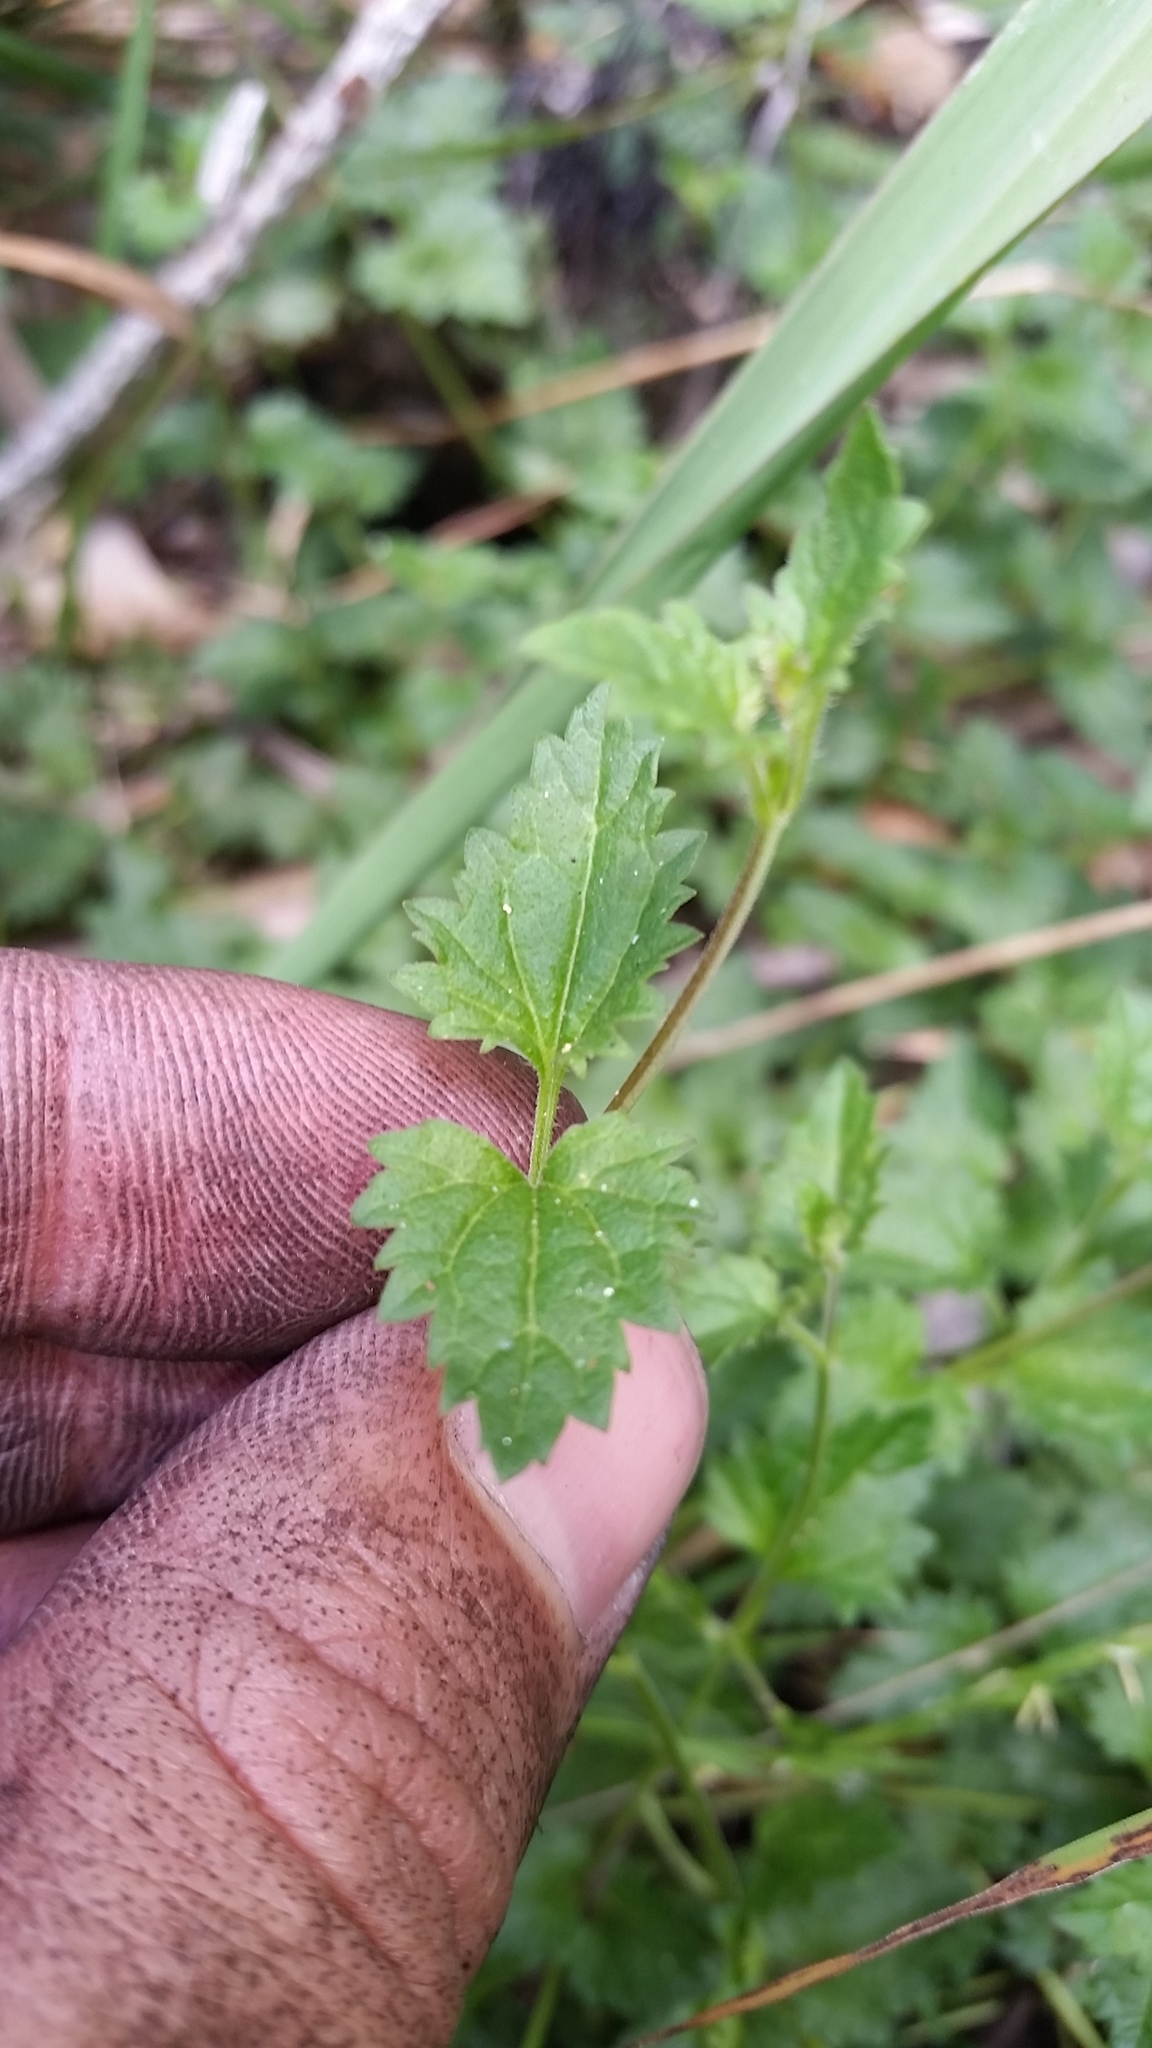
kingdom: Plantae
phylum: Tracheophyta
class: Magnoliopsida
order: Lamiales
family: Plantaginaceae
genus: Veronica
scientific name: Veronica plebeia
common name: Speedwell
